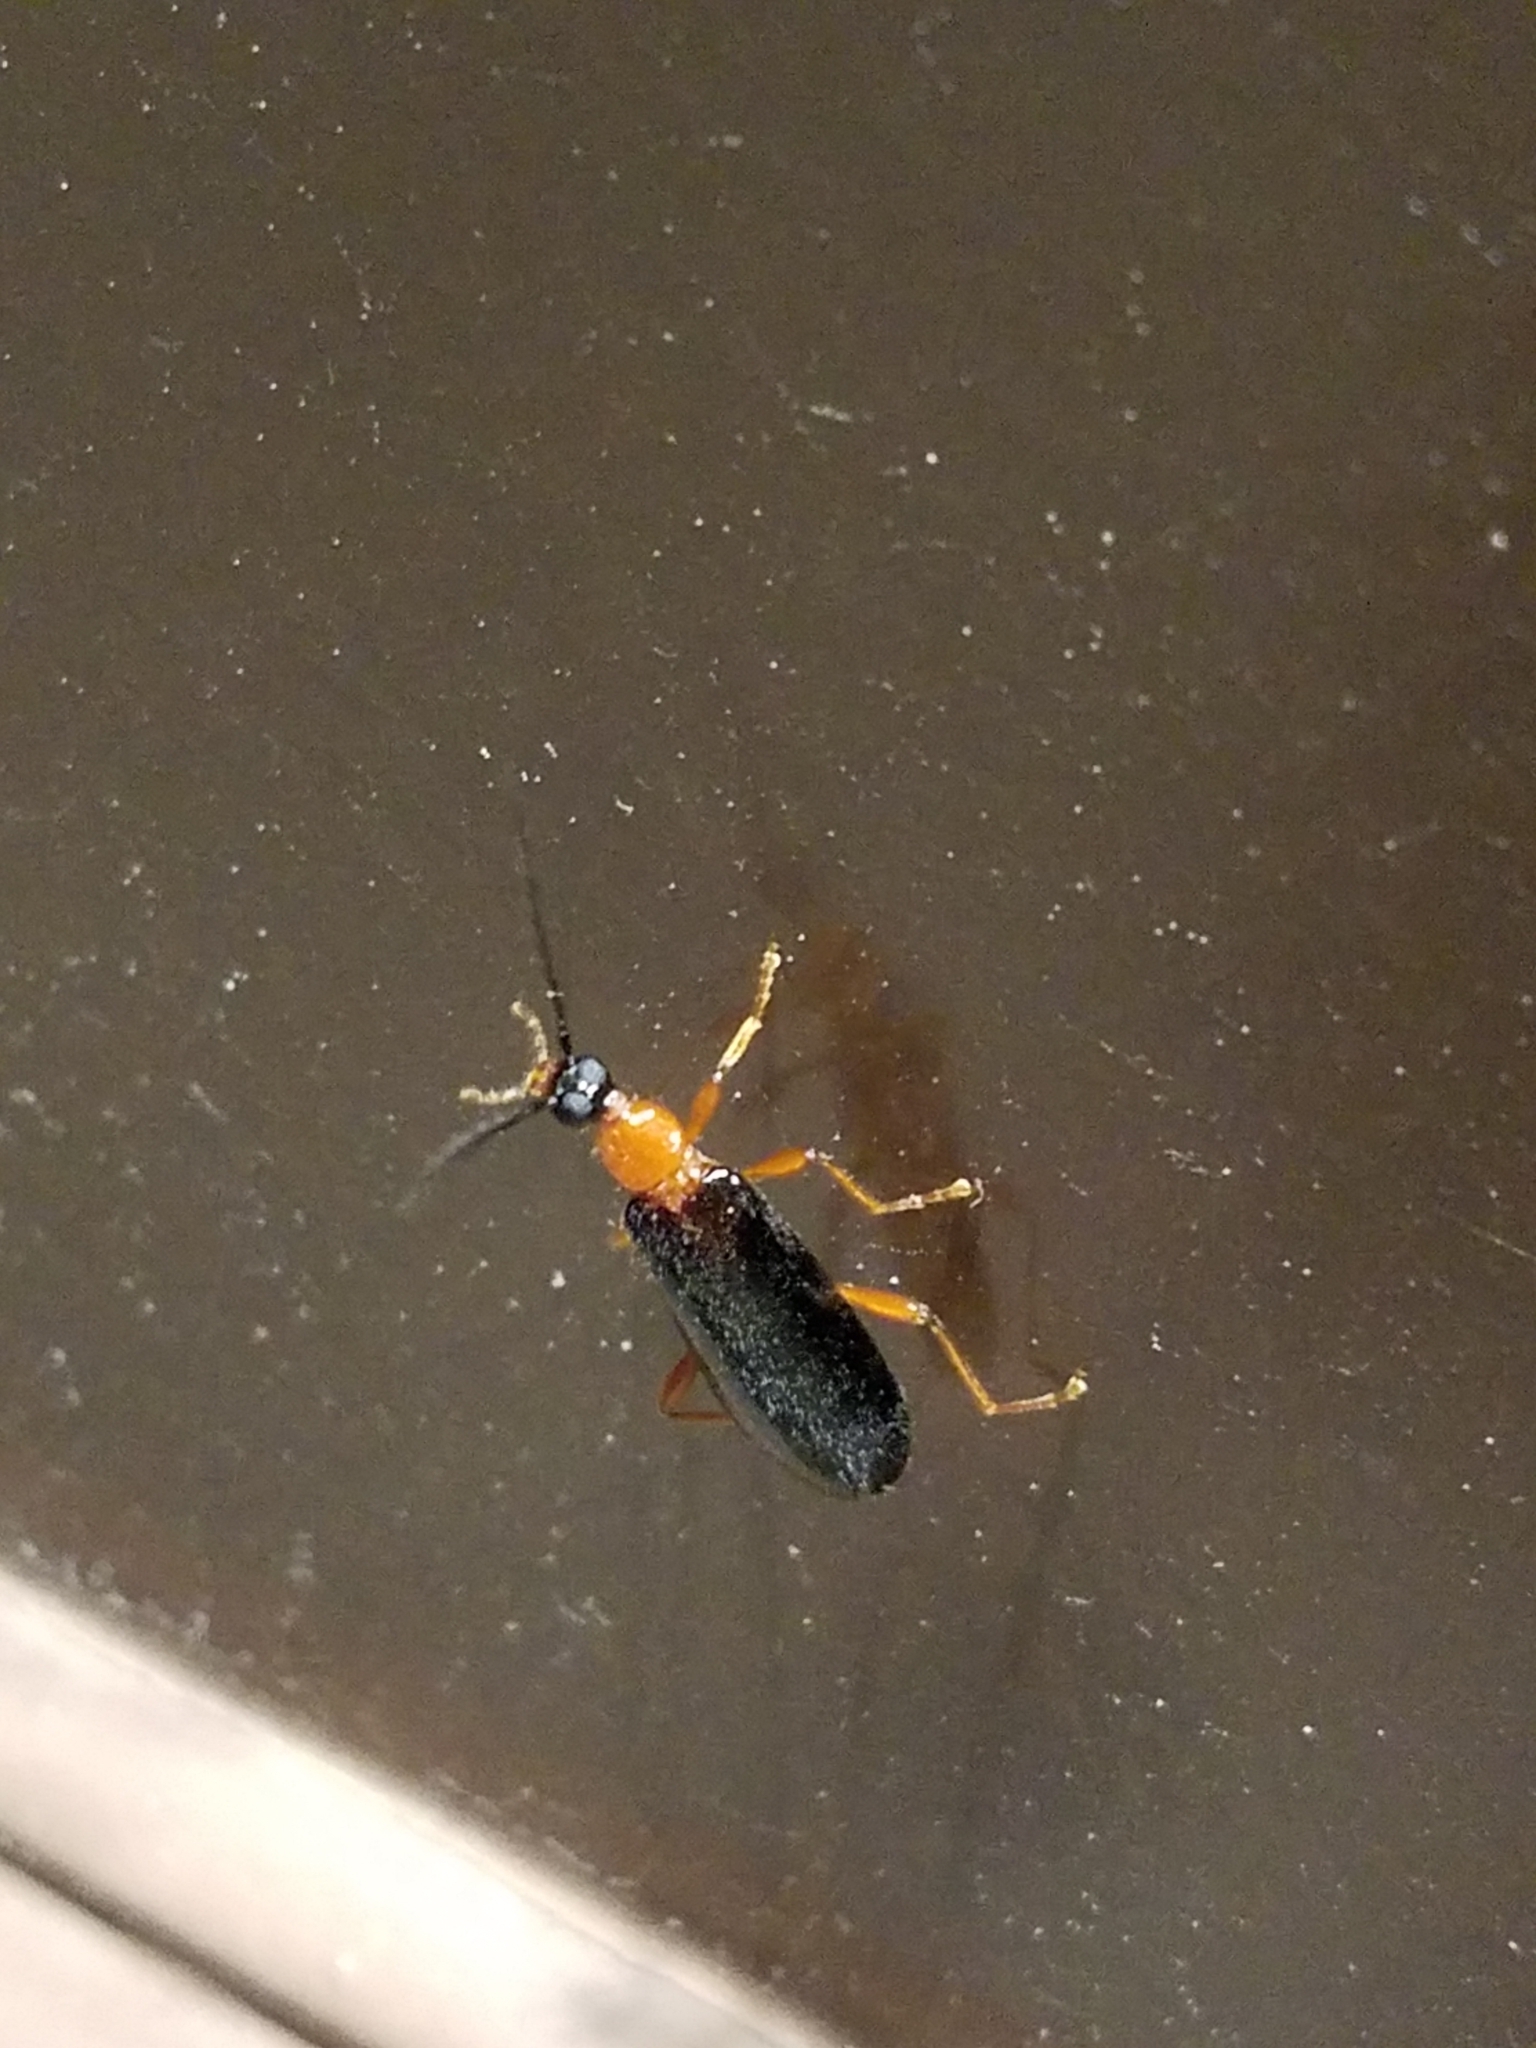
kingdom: Animalia
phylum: Arthropoda
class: Insecta
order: Coleoptera
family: Pyrochroidae
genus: Dendroides
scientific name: Dendroides canadensis
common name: Canada fire-colored beetle
